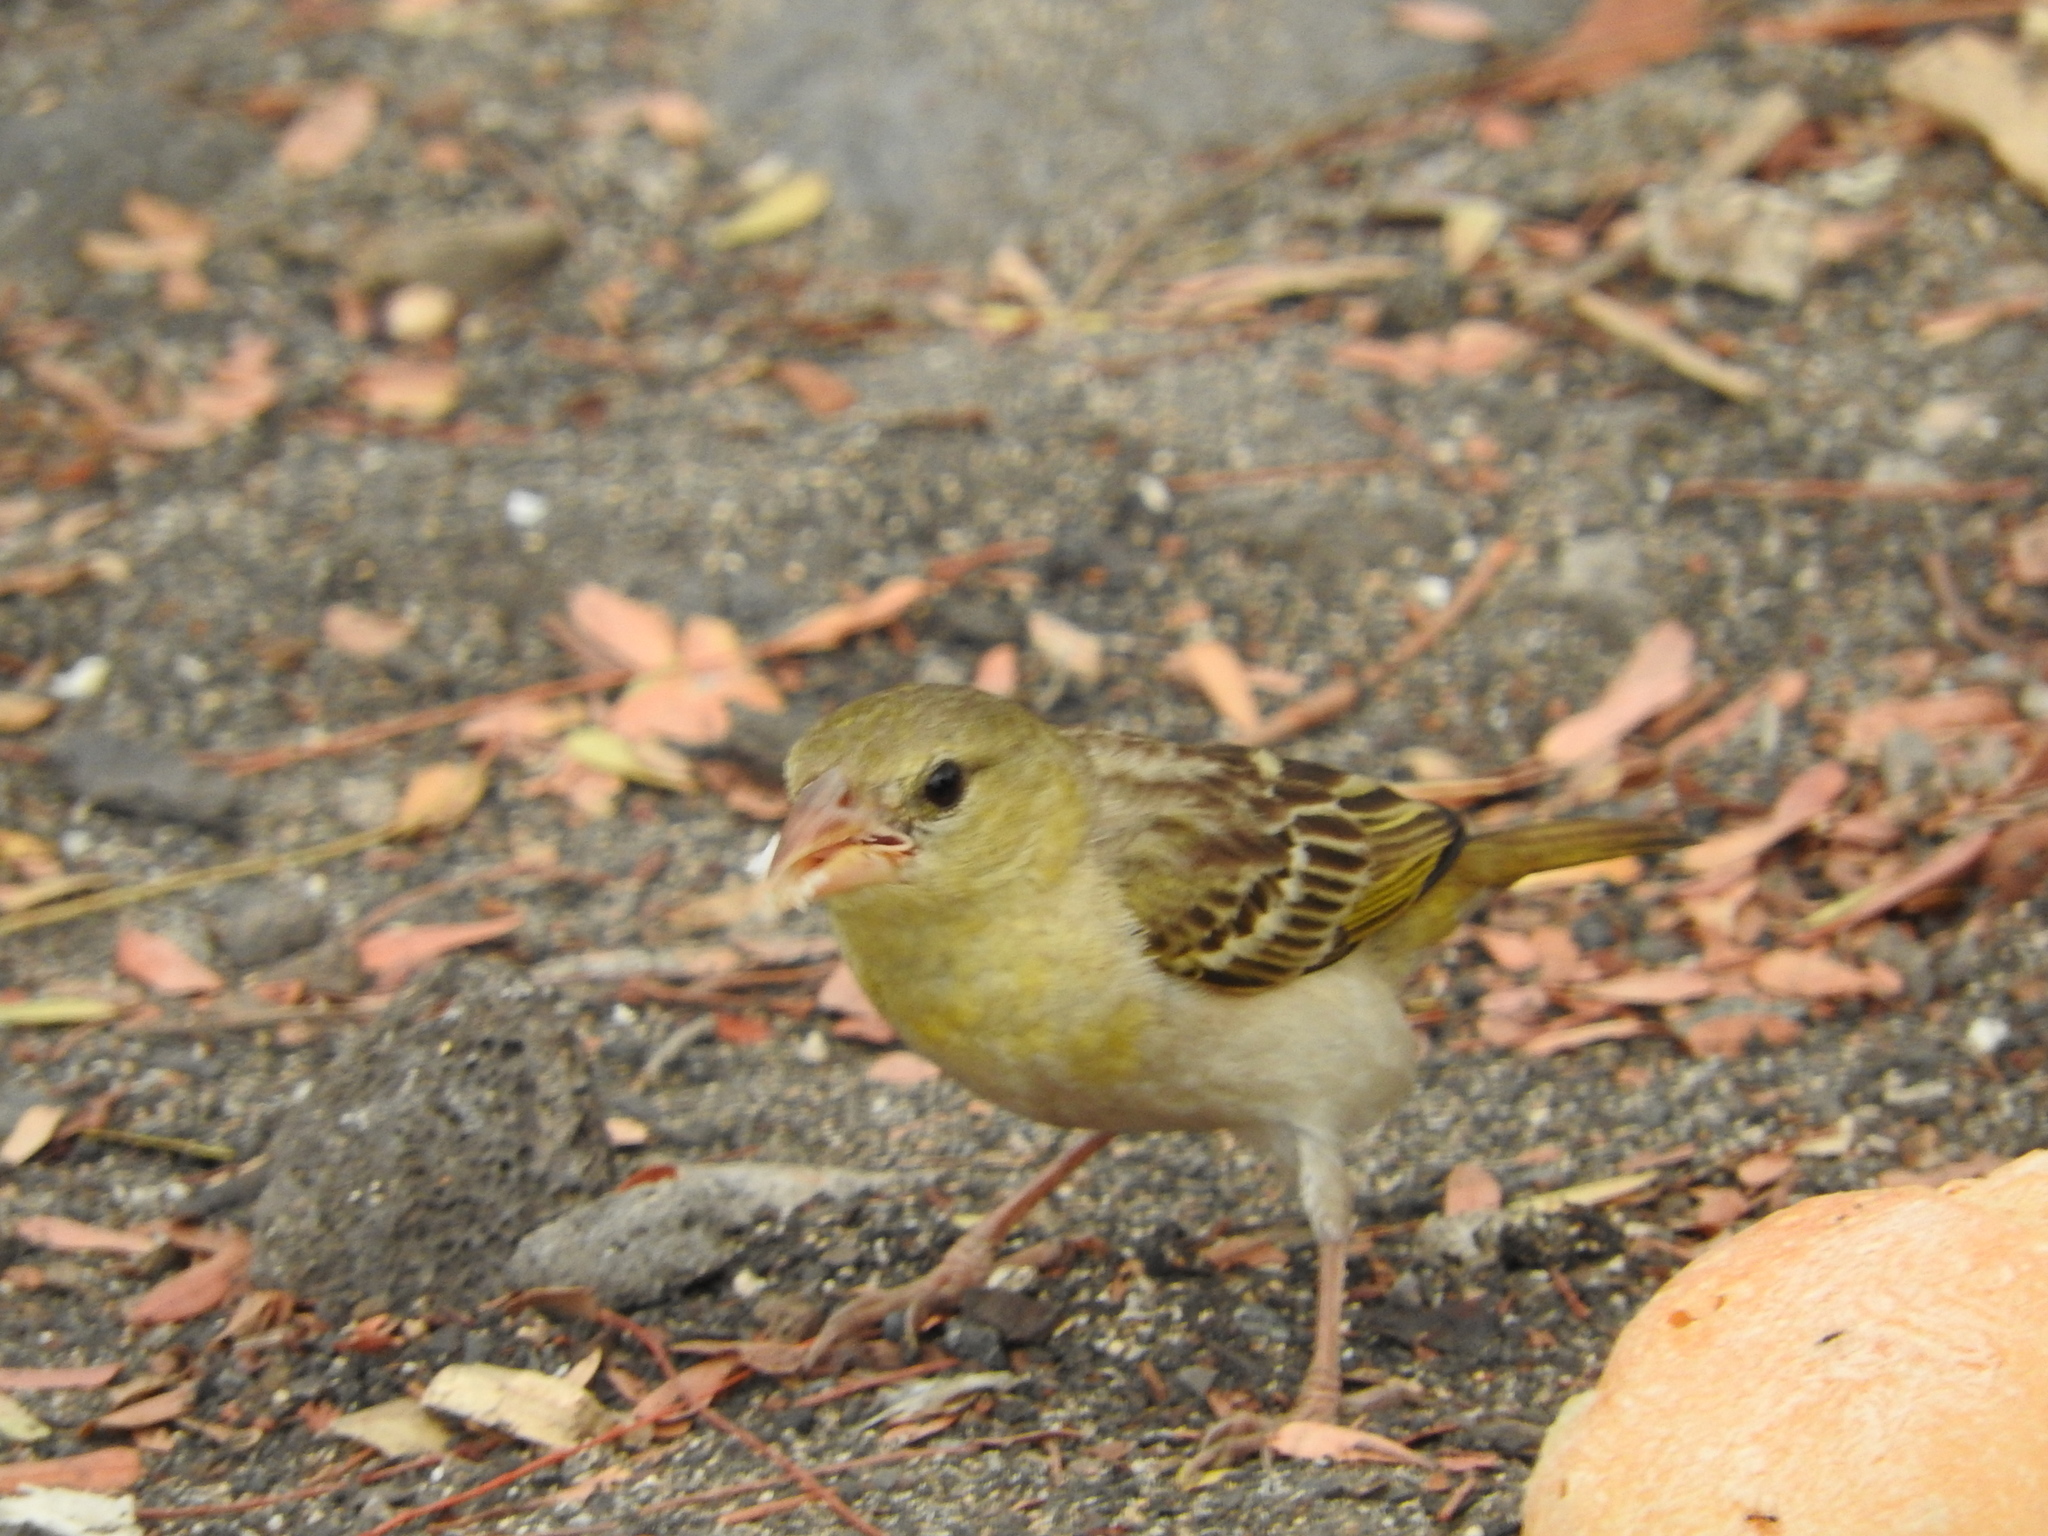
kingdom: Animalia
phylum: Chordata
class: Aves
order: Passeriformes
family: Ploceidae
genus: Ploceus
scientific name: Ploceus velatus
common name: Southern masked weaver
